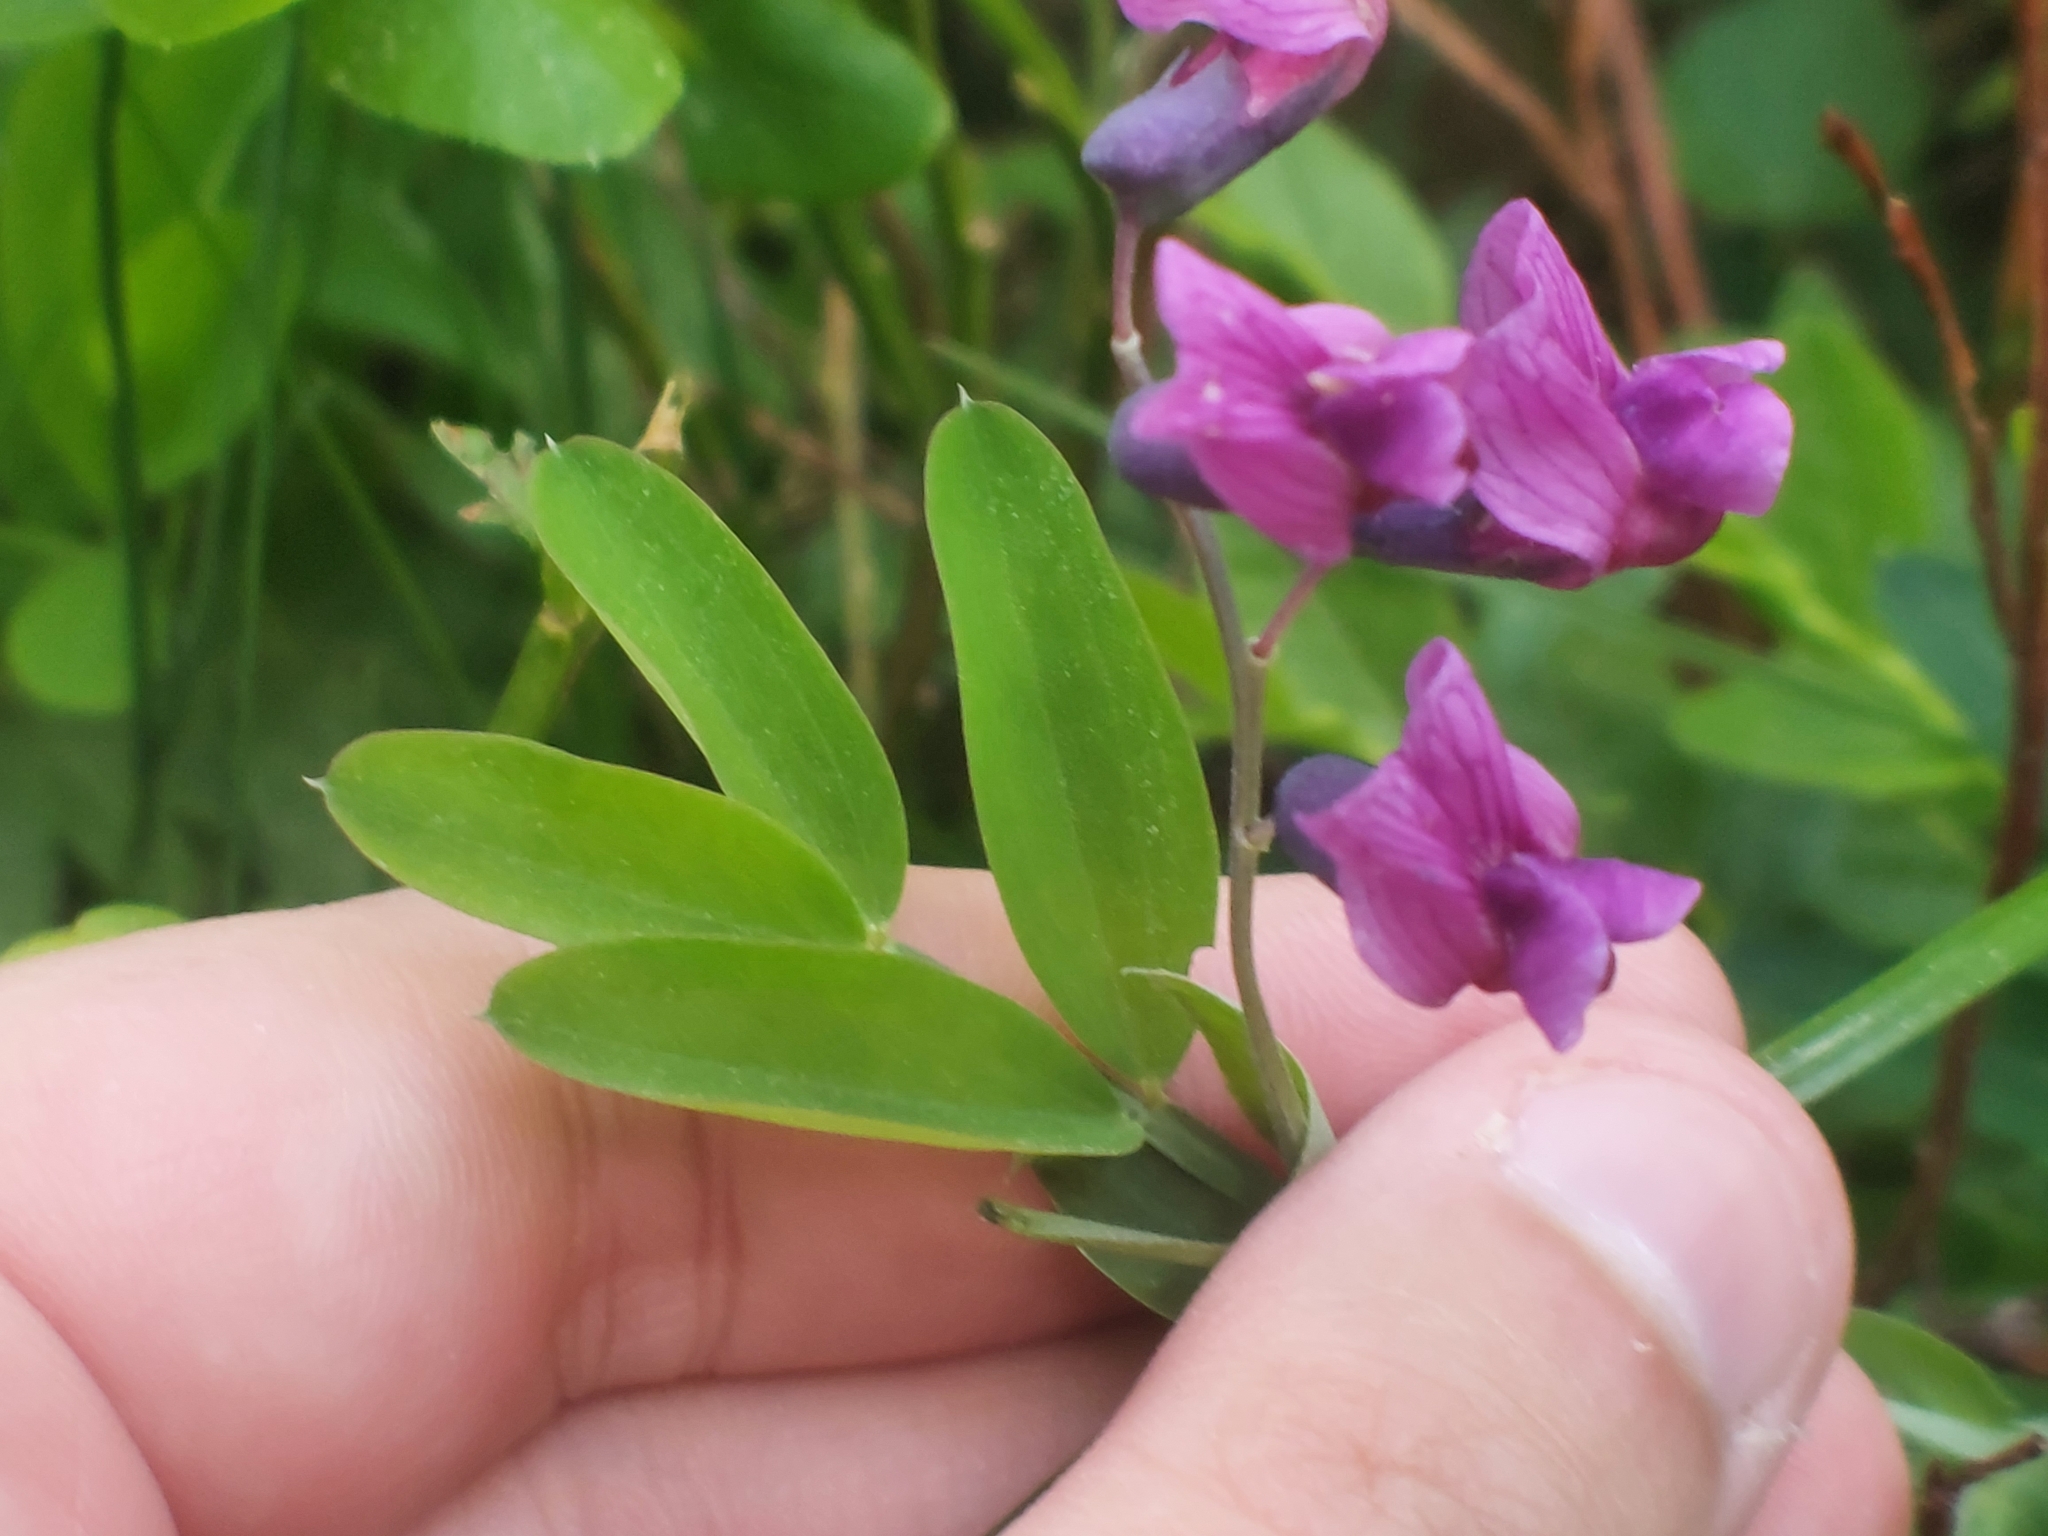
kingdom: Plantae
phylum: Tracheophyta
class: Magnoliopsida
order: Fabales
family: Fabaceae
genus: Lathyrus
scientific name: Lathyrus linifolius
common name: Bitter-vetch
